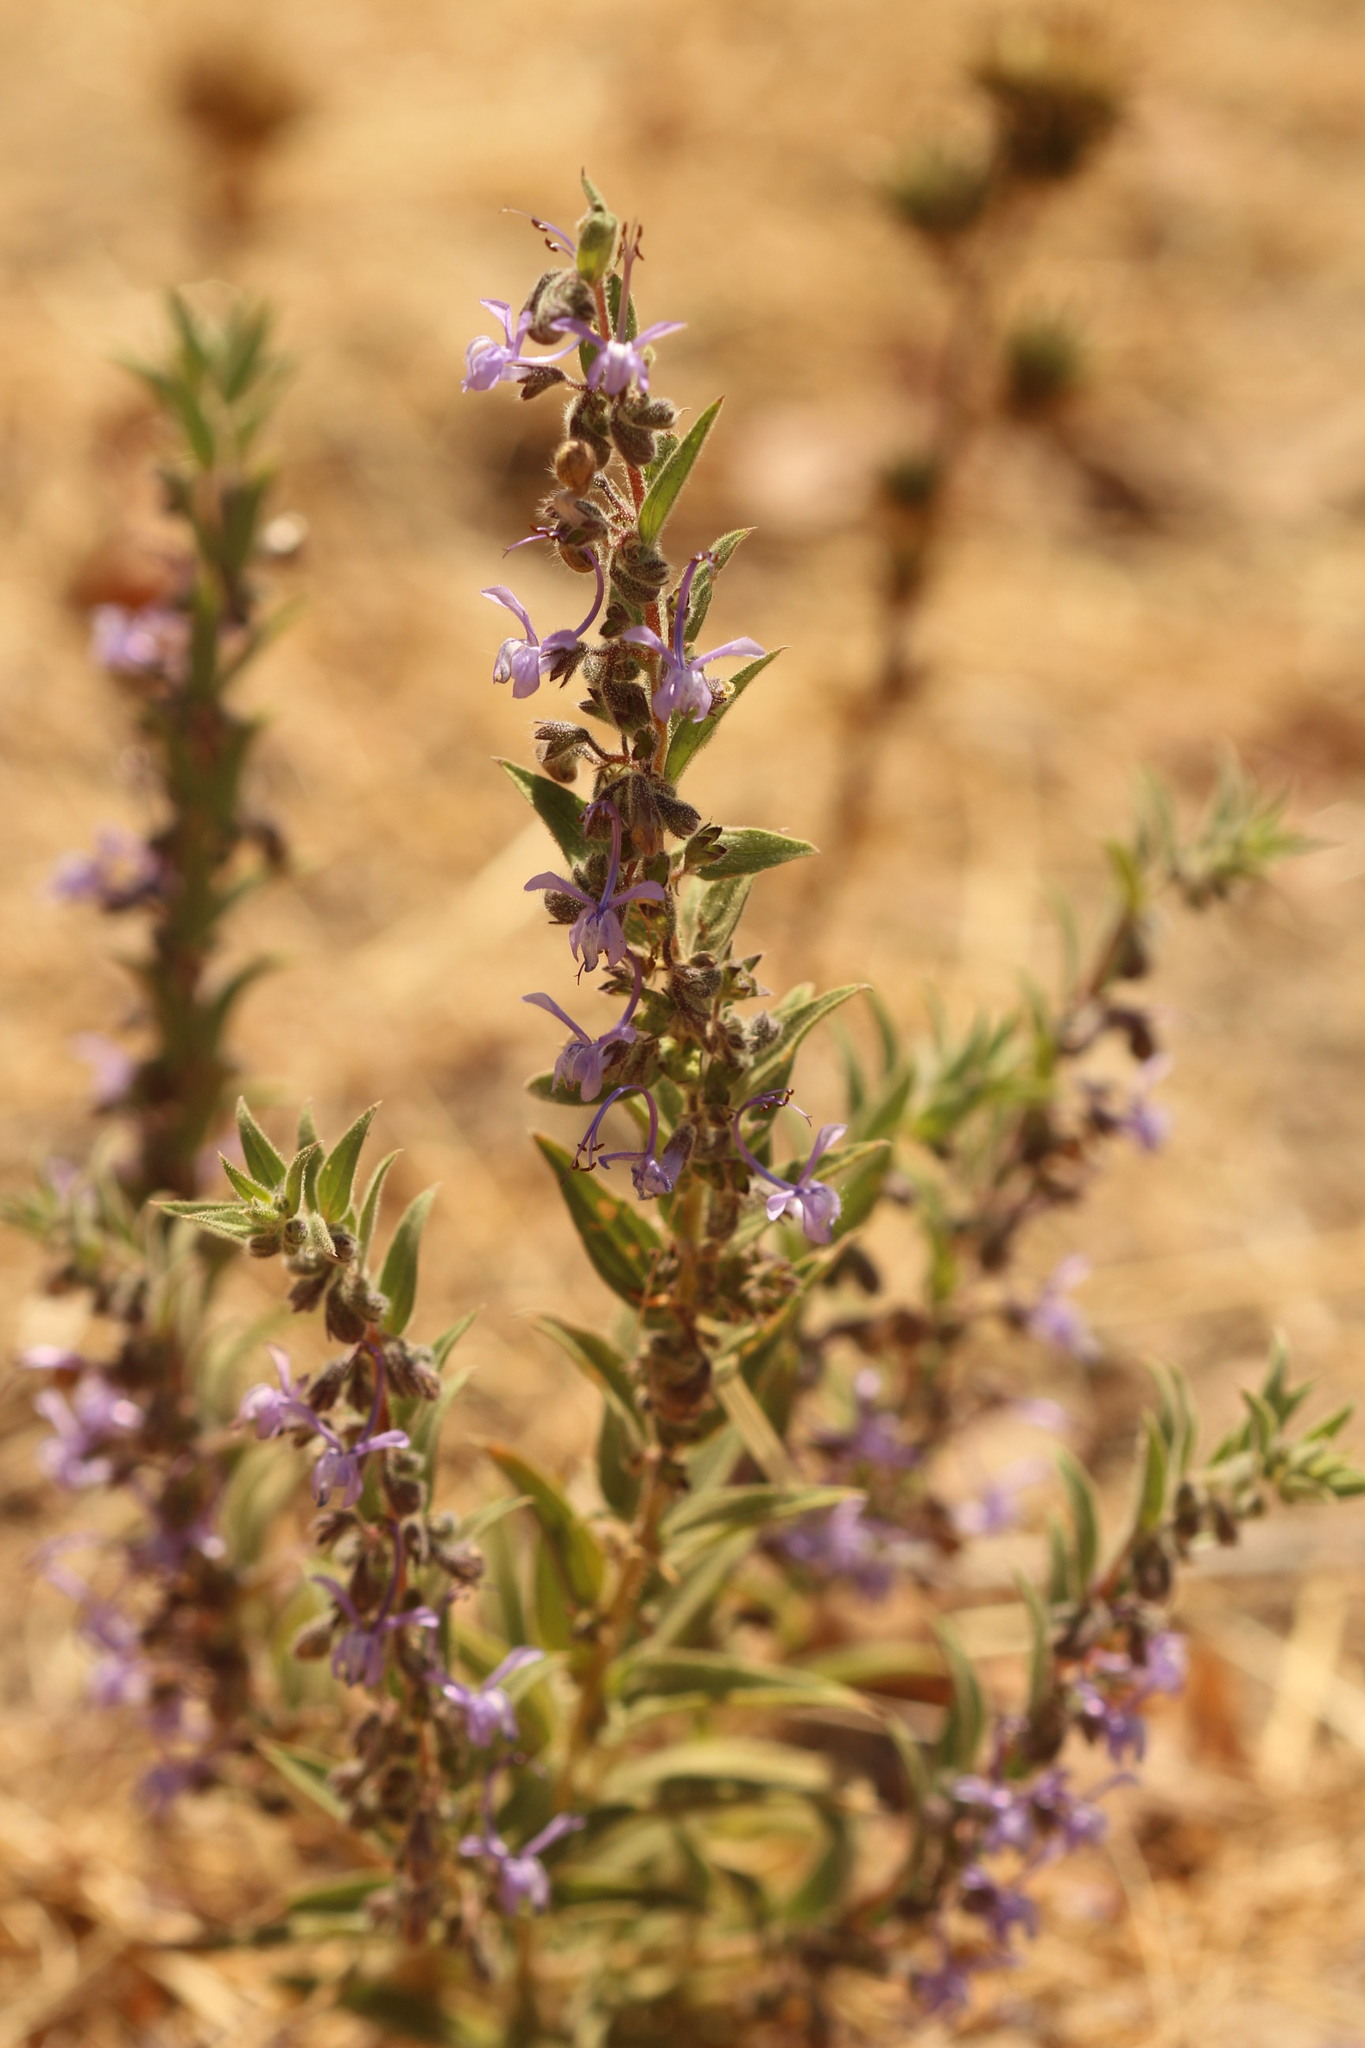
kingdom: Plantae
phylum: Tracheophyta
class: Magnoliopsida
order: Lamiales
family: Lamiaceae
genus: Trichostema
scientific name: Trichostema lanceolatum
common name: Vinegar-weed
